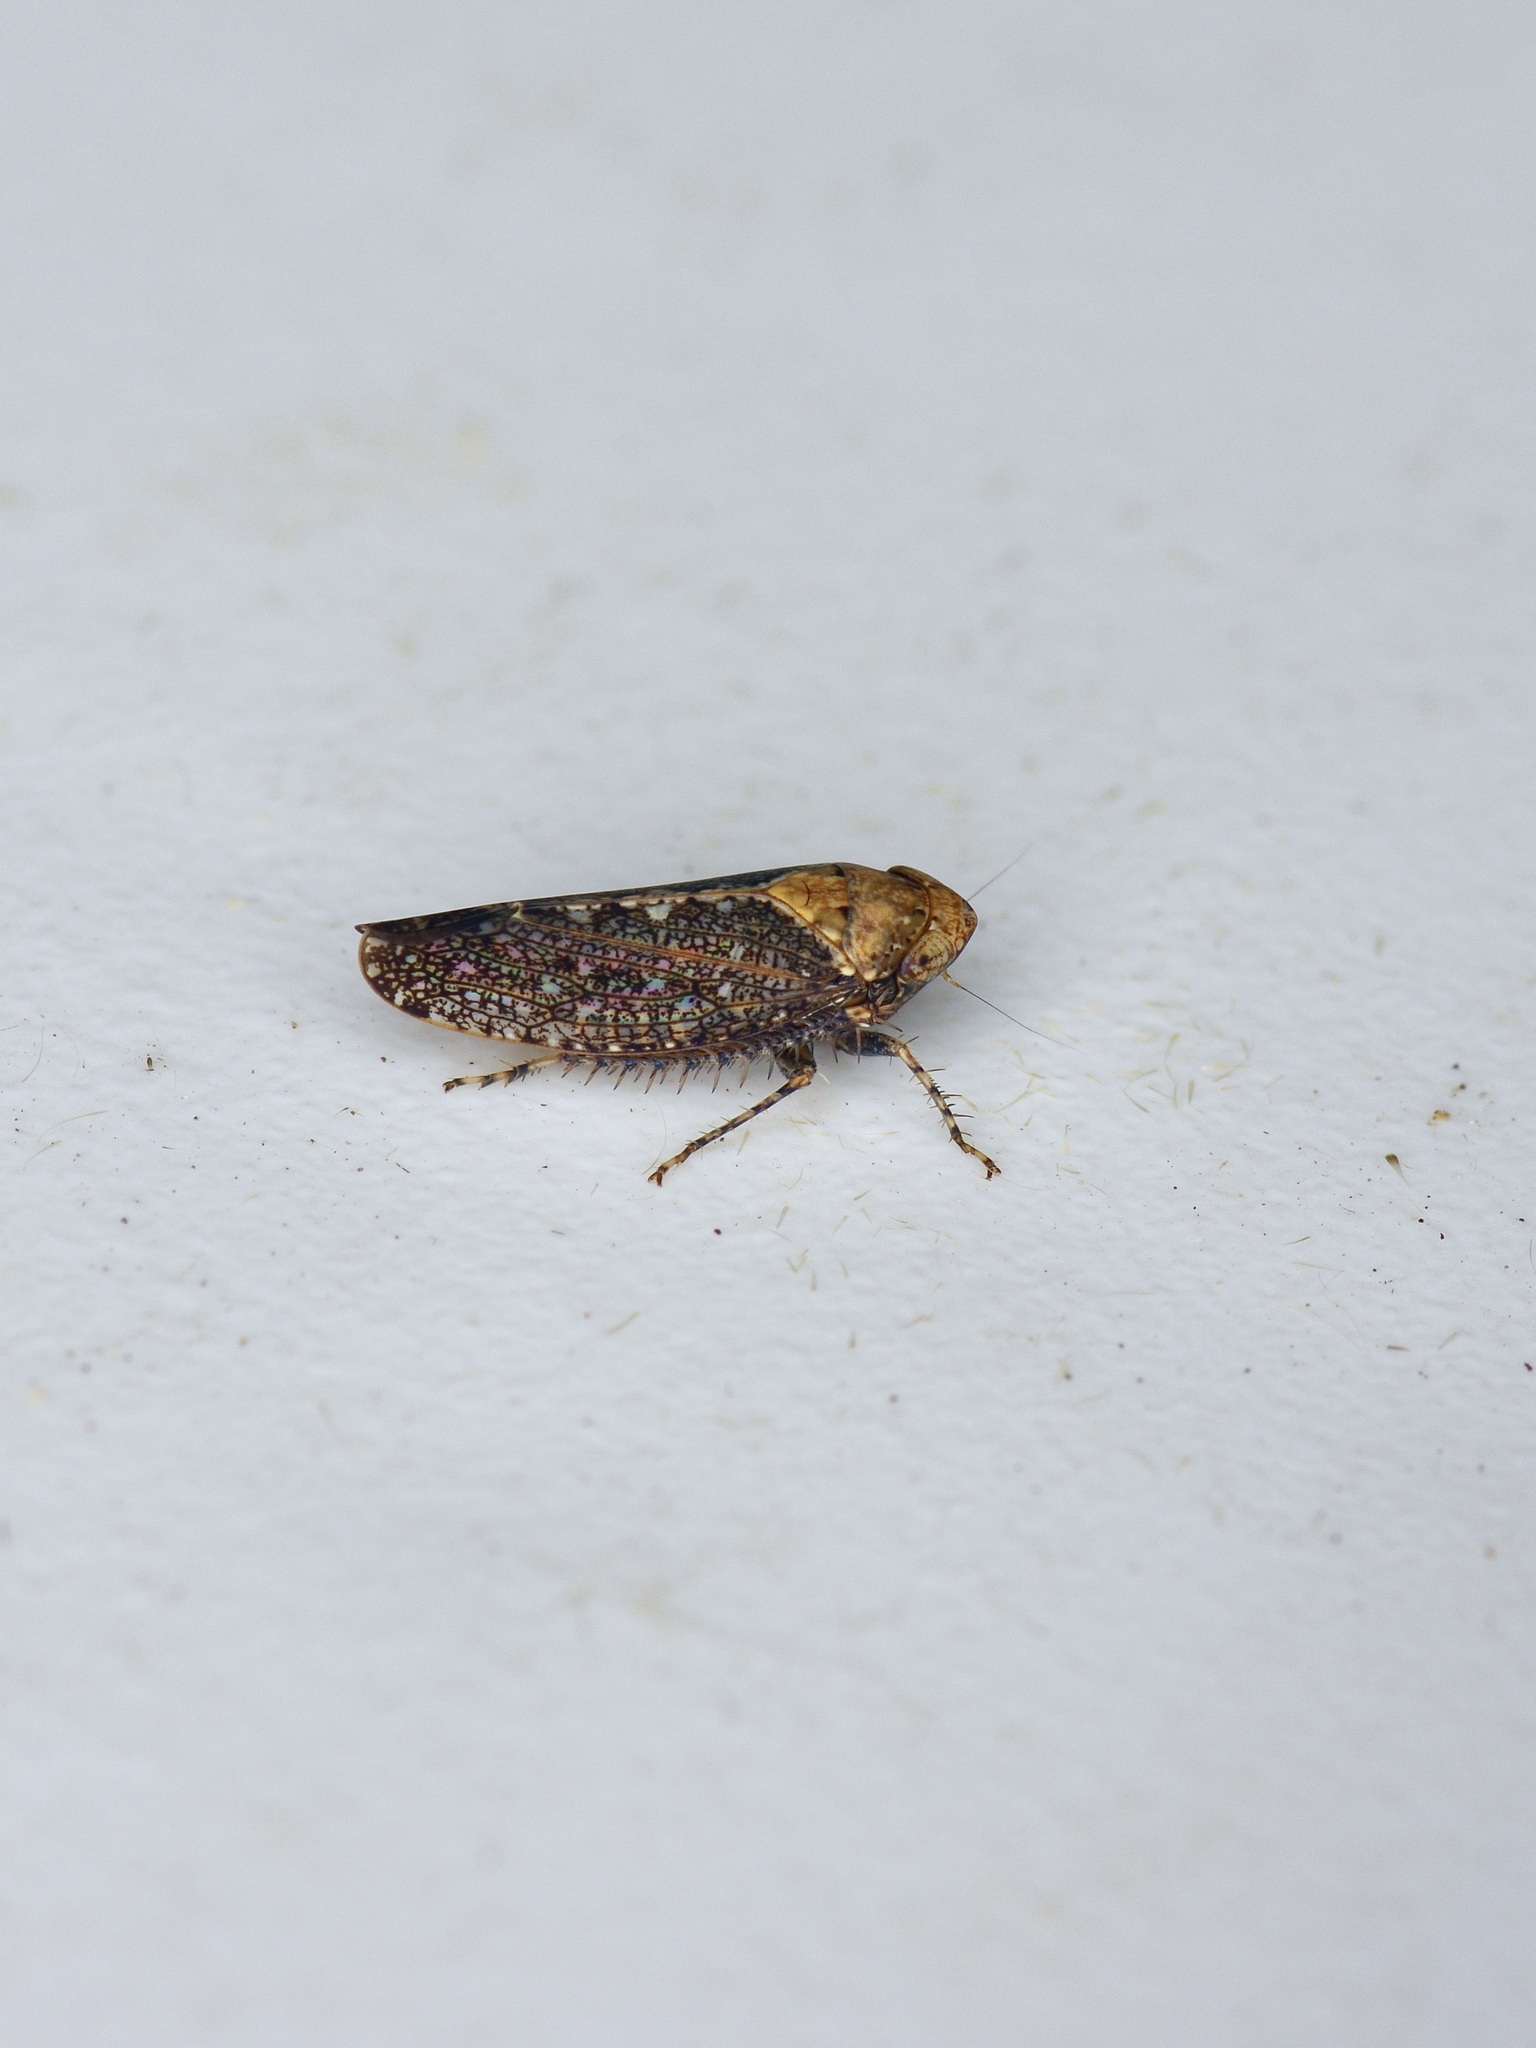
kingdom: Animalia
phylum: Arthropoda
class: Insecta
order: Hemiptera
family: Cicadellidae
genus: Excultanus
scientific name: Excultanus excultus
